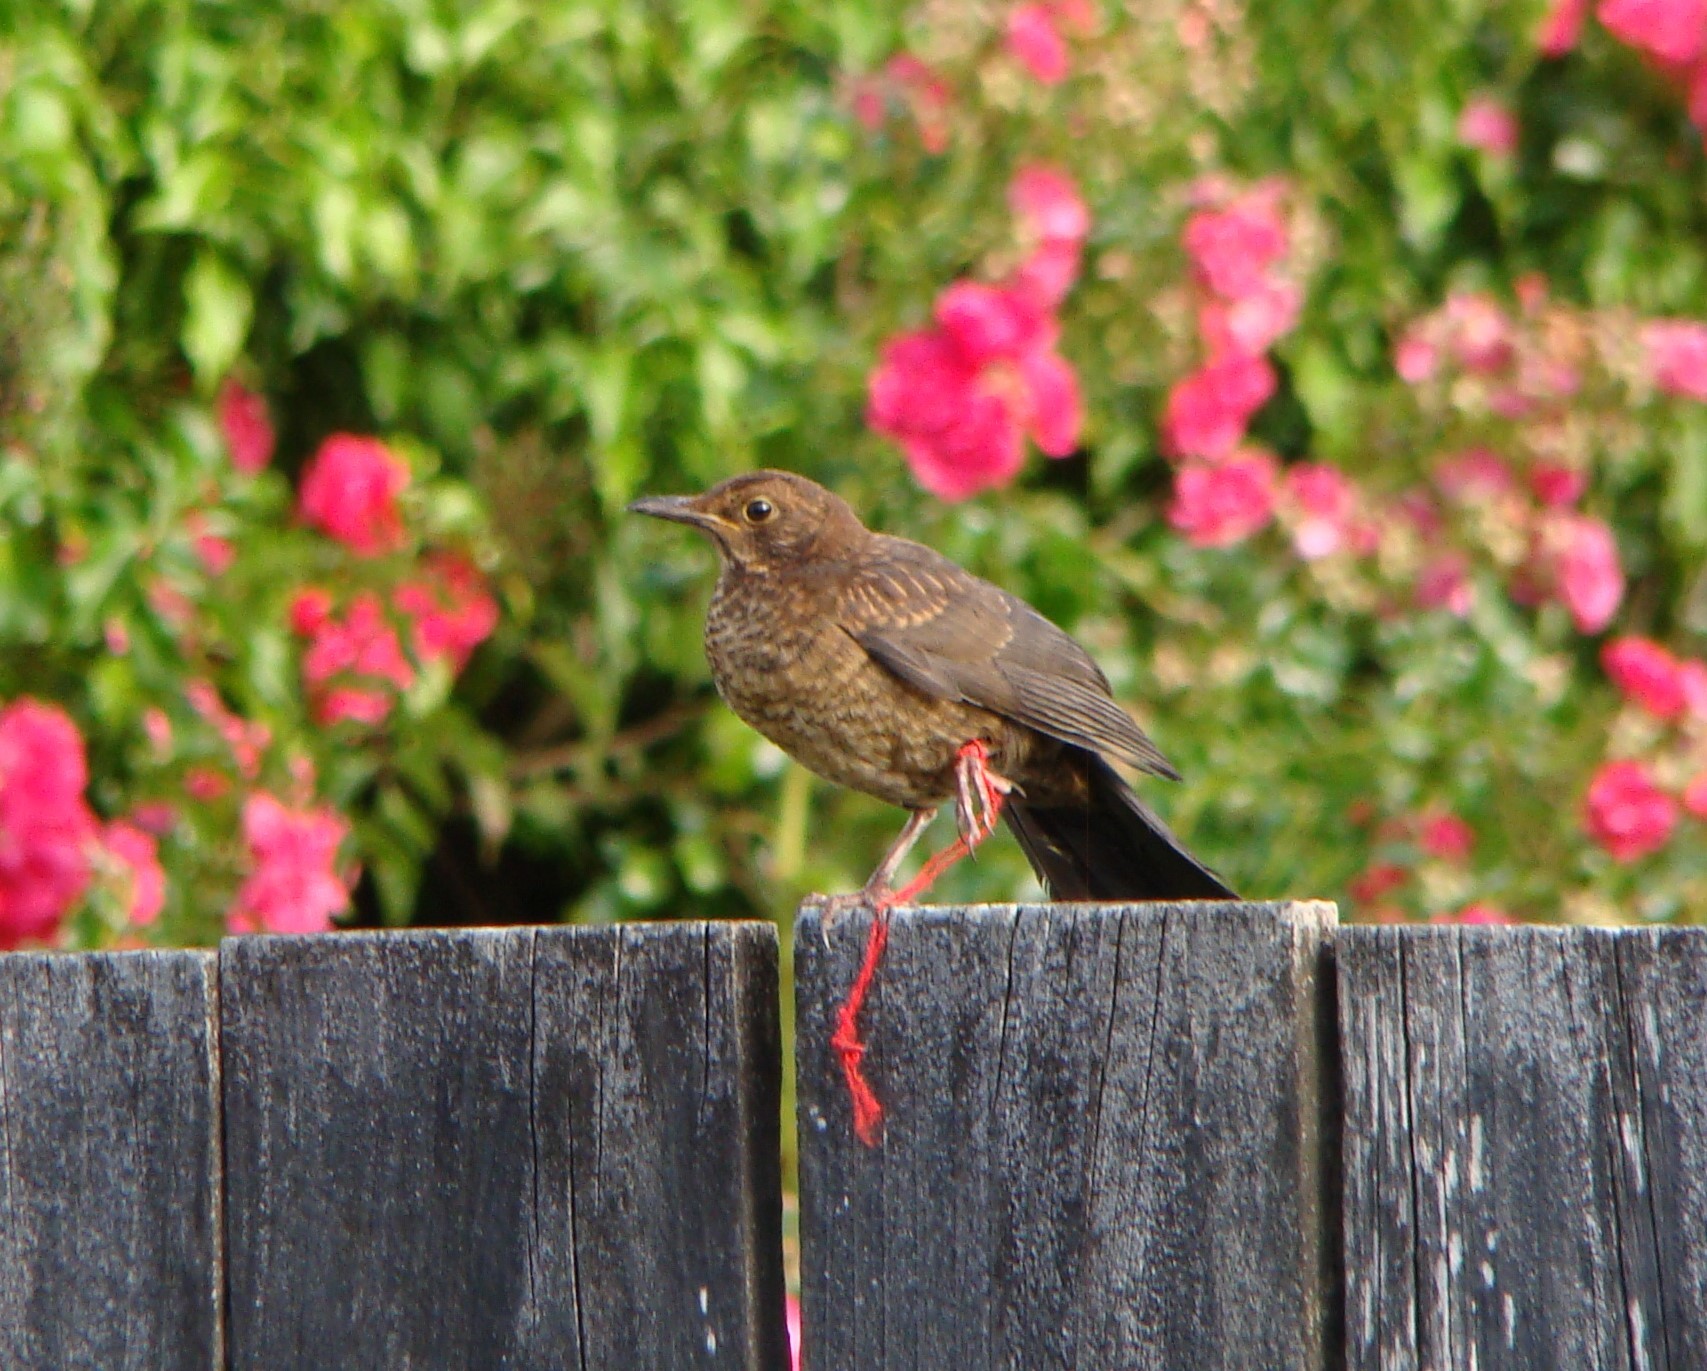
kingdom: Animalia
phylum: Chordata
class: Aves
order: Passeriformes
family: Turdidae
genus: Turdus
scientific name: Turdus merula
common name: Common blackbird
